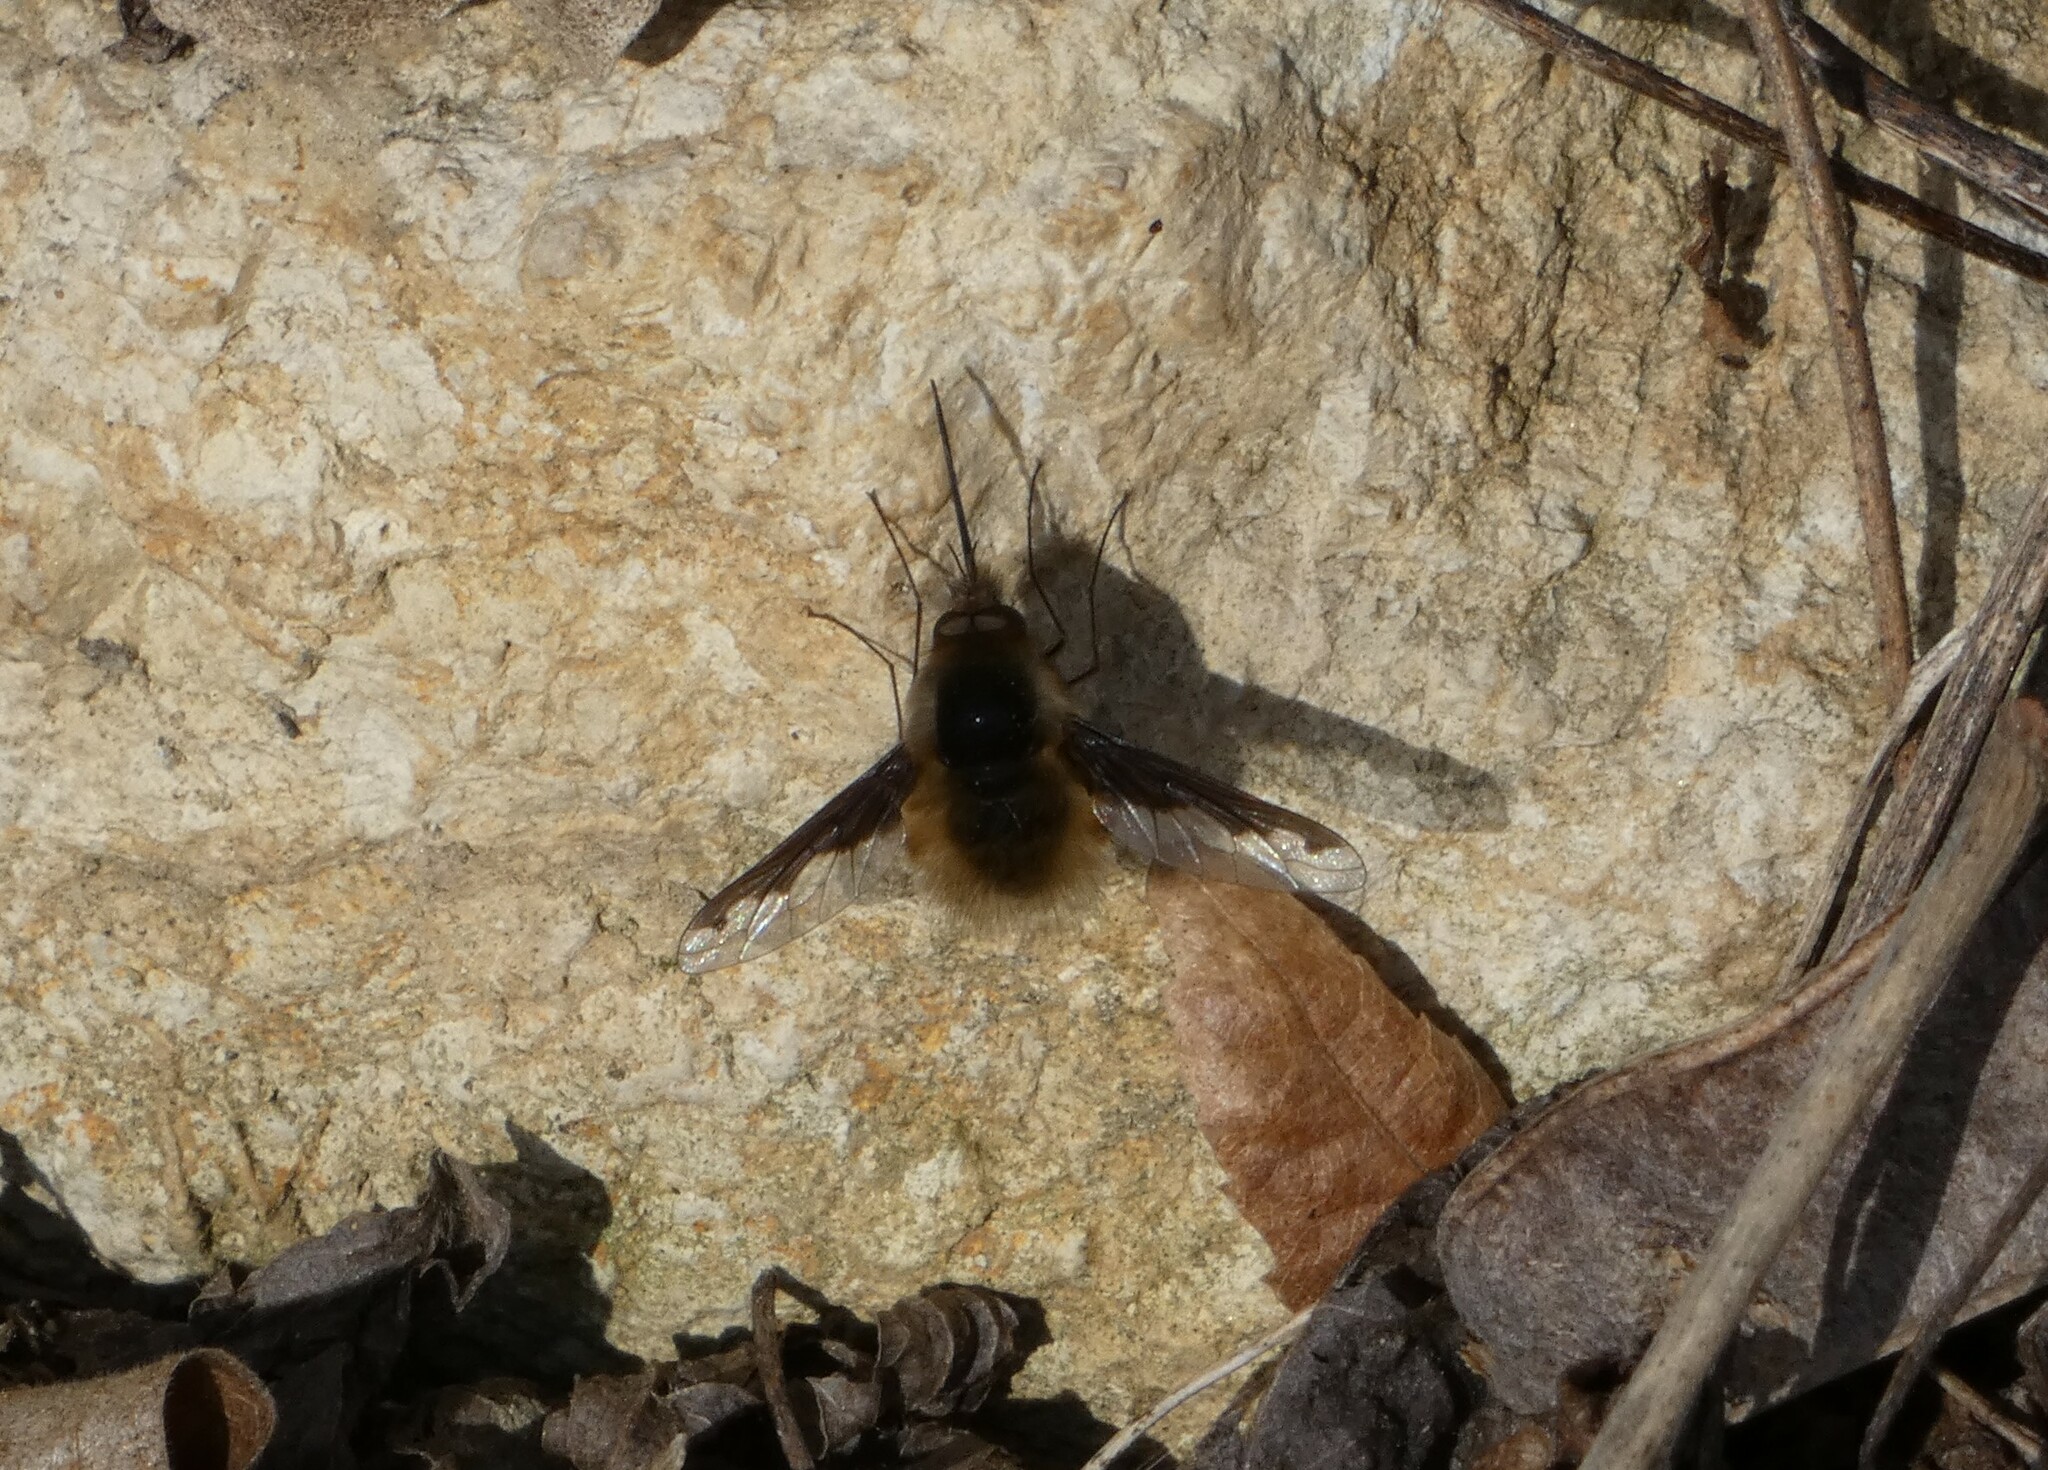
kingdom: Animalia
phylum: Arthropoda
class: Insecta
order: Diptera
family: Bombyliidae
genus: Bombylius
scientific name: Bombylius major
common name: Bee fly
